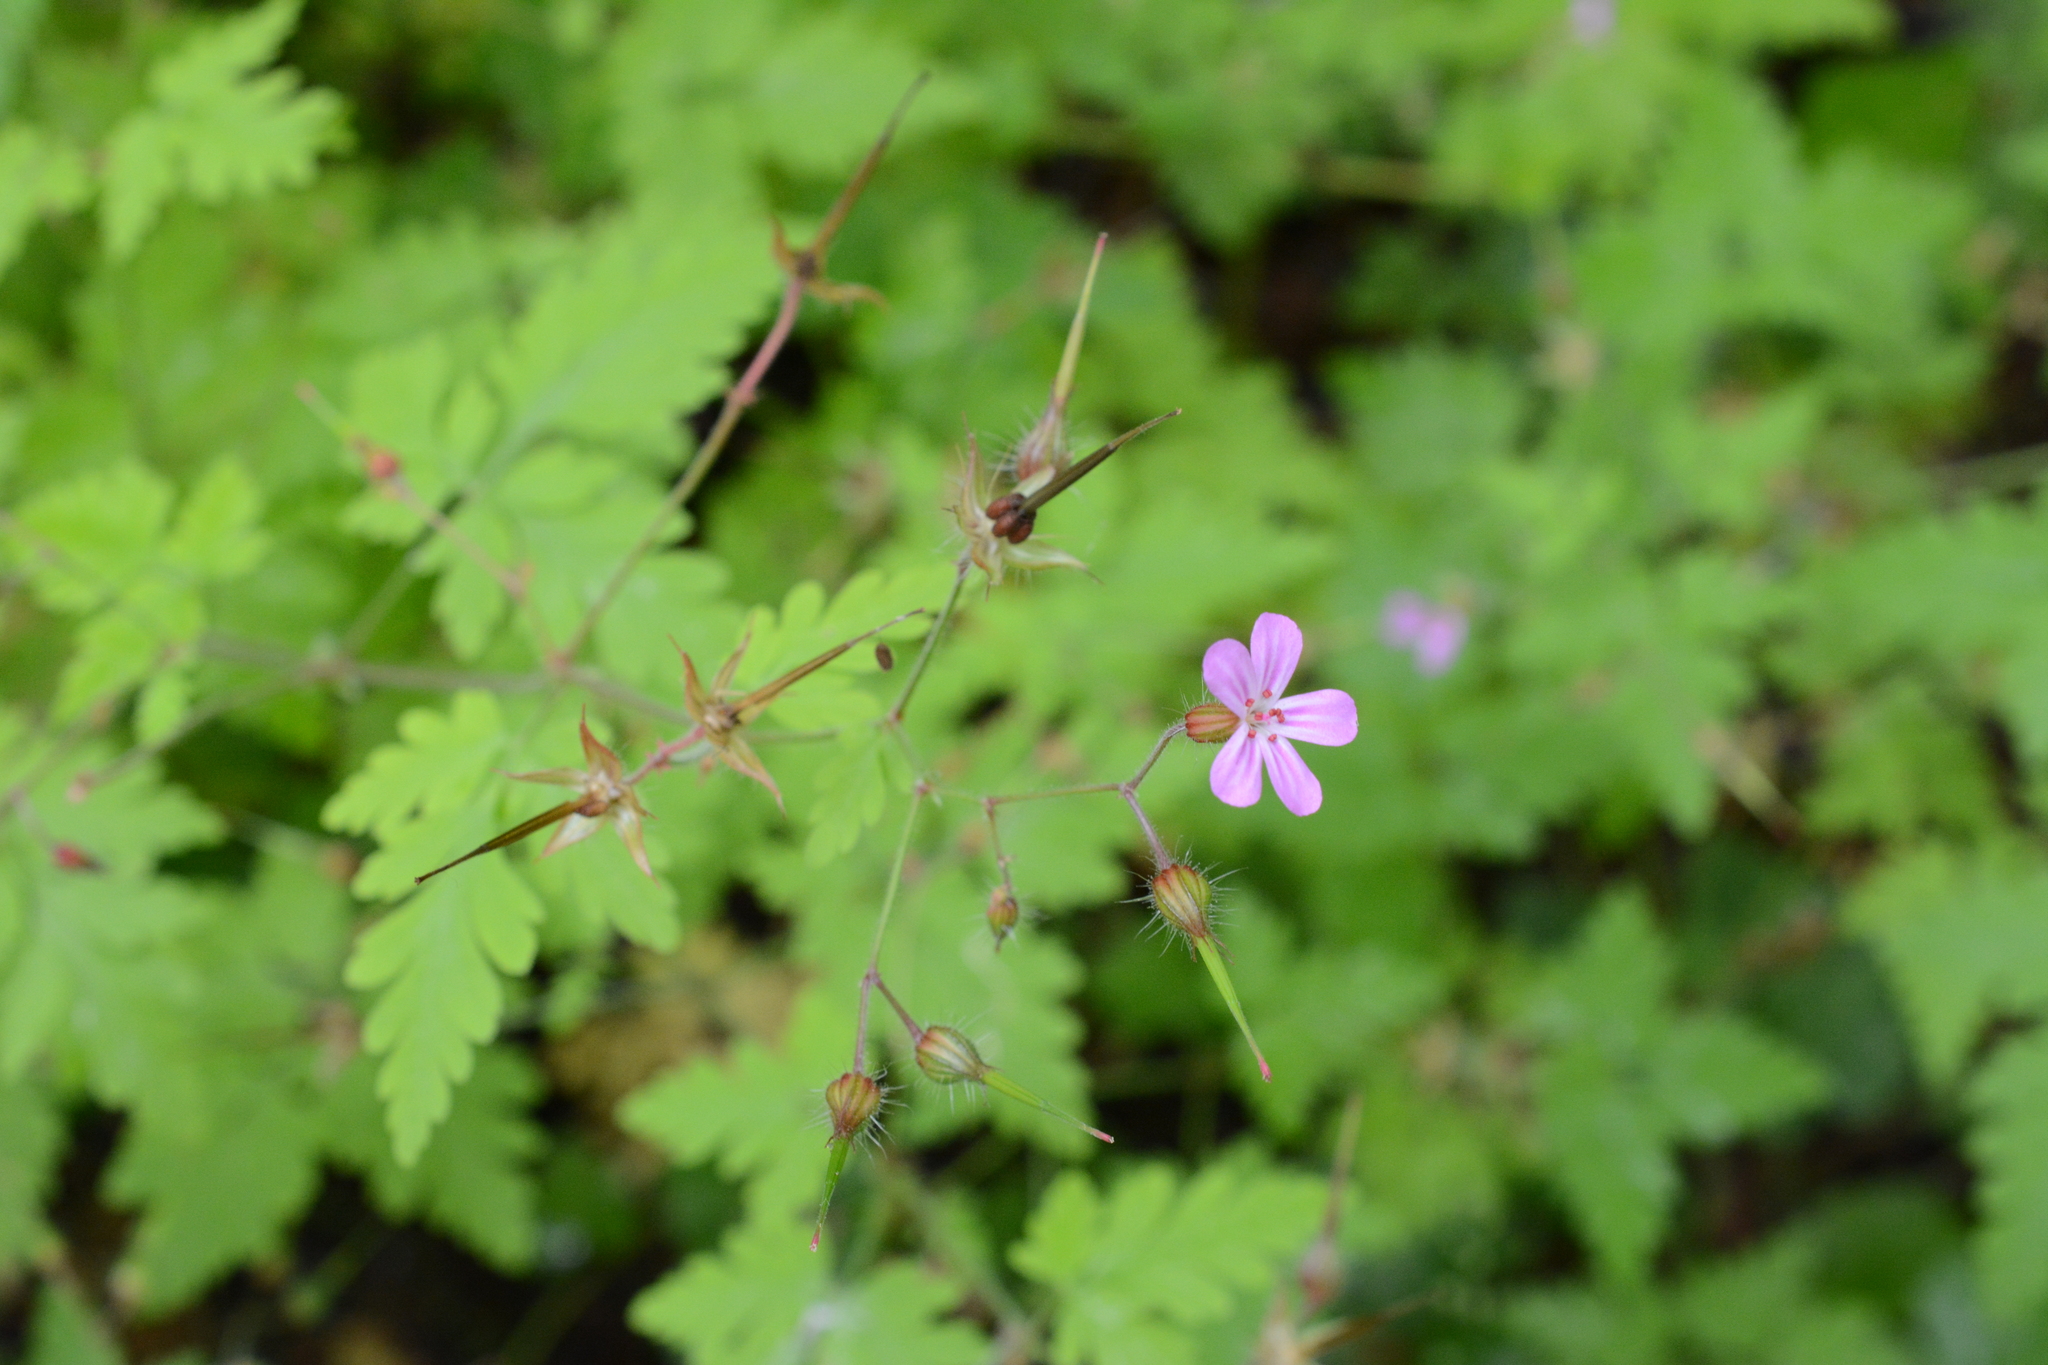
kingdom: Plantae
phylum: Tracheophyta
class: Magnoliopsida
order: Geraniales
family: Geraniaceae
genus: Geranium
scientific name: Geranium robertianum
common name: Herb-robert
